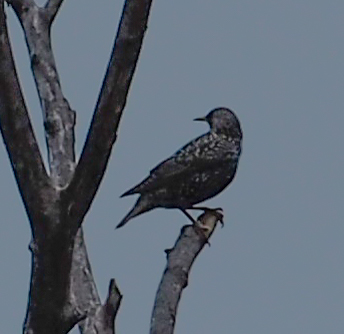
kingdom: Animalia
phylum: Chordata
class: Aves
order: Passeriformes
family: Sturnidae
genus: Sturnus
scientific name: Sturnus vulgaris
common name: Common starling
